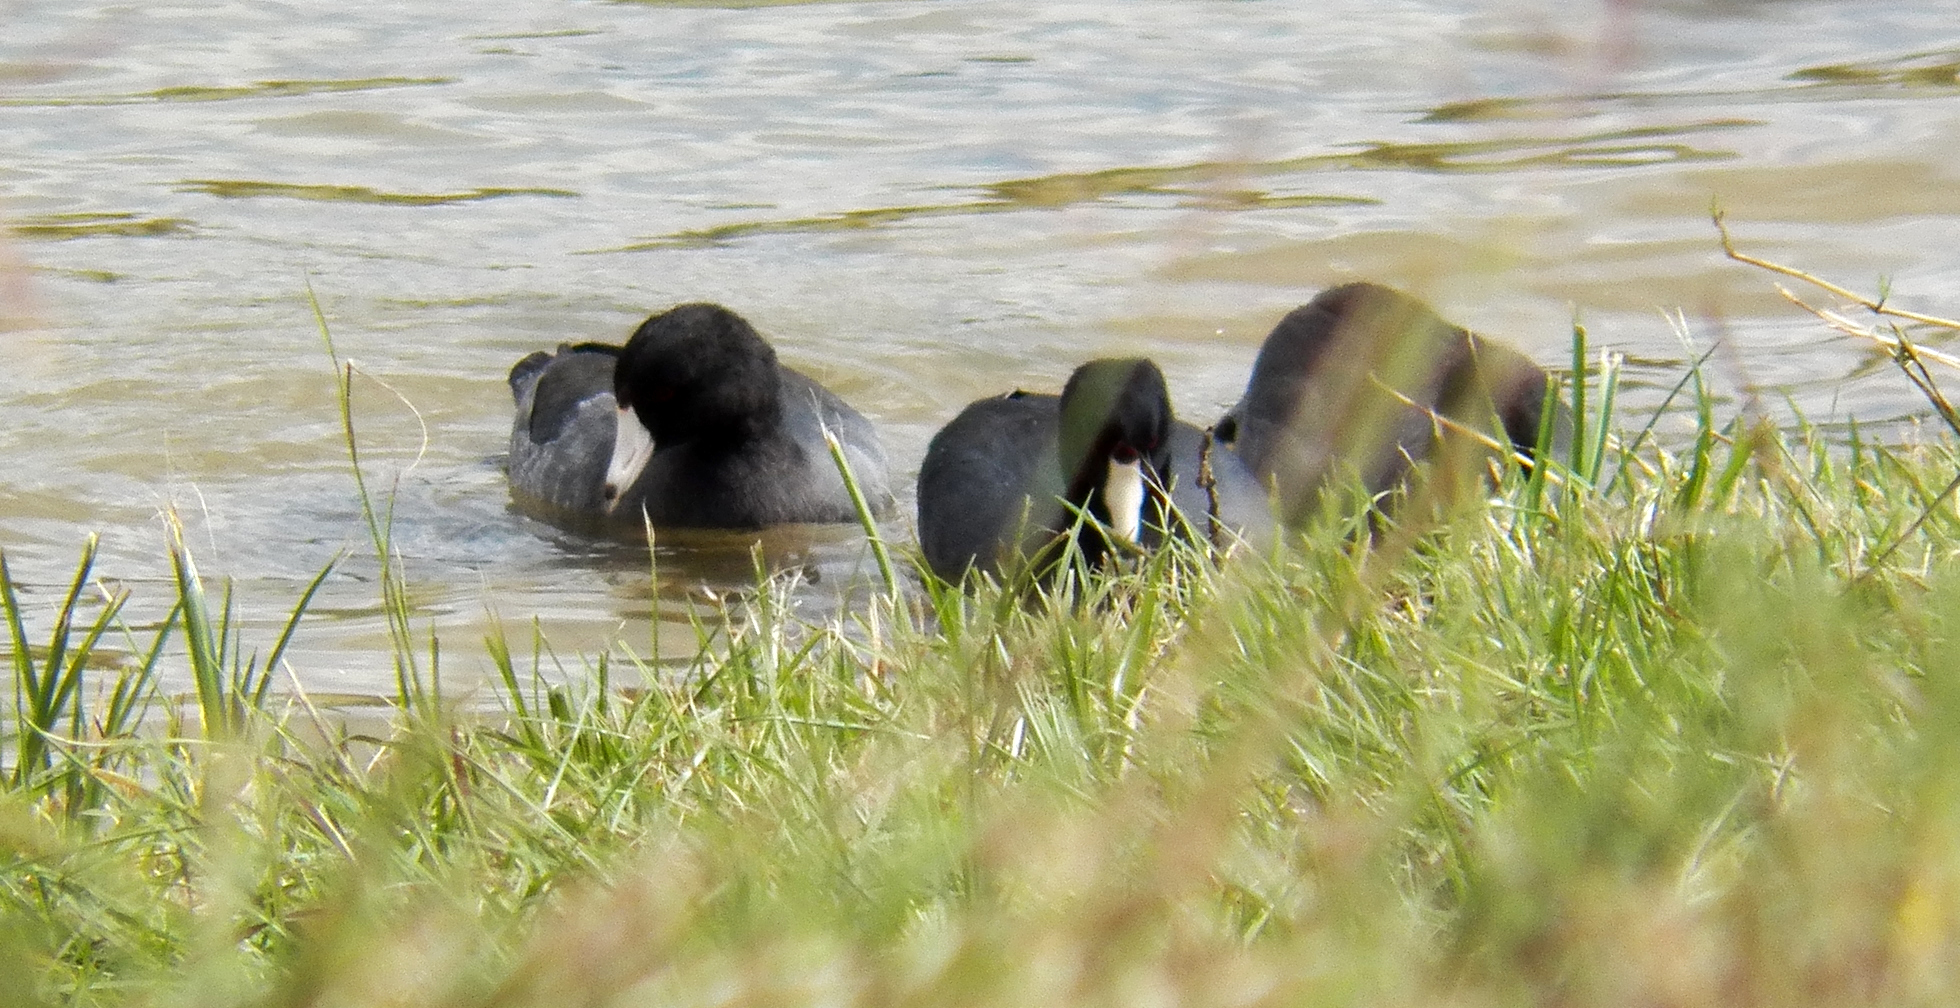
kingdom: Animalia
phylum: Chordata
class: Aves
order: Gruiformes
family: Rallidae
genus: Fulica
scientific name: Fulica americana
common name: American coot
